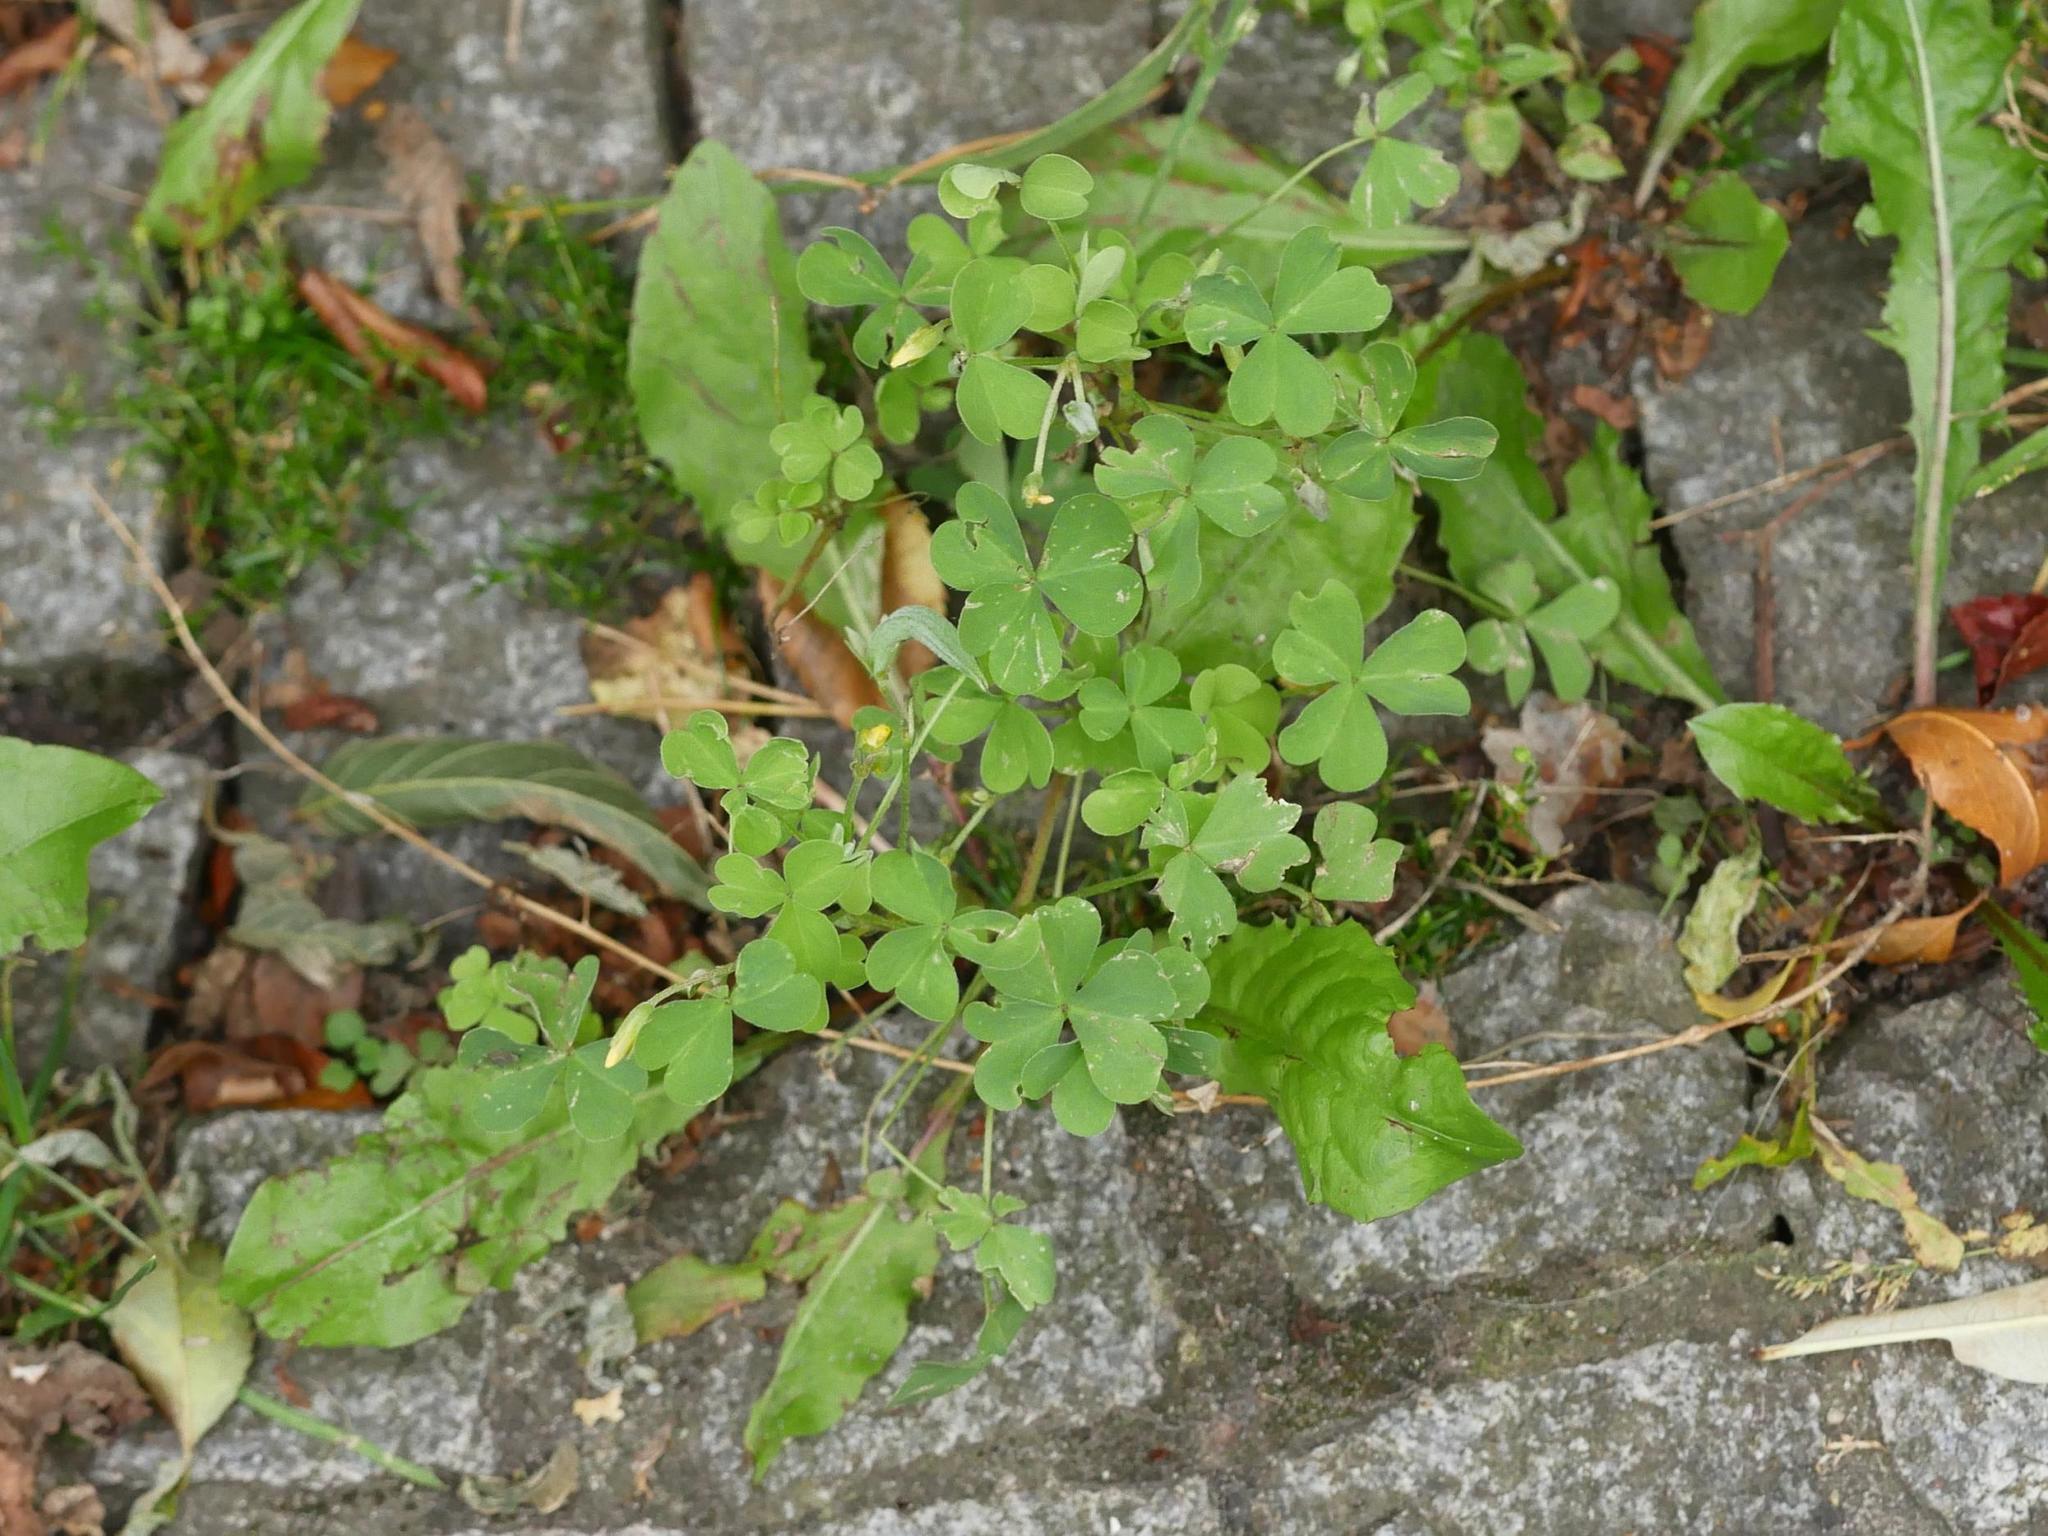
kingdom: Plantae
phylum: Tracheophyta
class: Magnoliopsida
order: Oxalidales
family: Oxalidaceae
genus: Oxalis
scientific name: Oxalis dillenii
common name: Sussex yellow-sorrel
